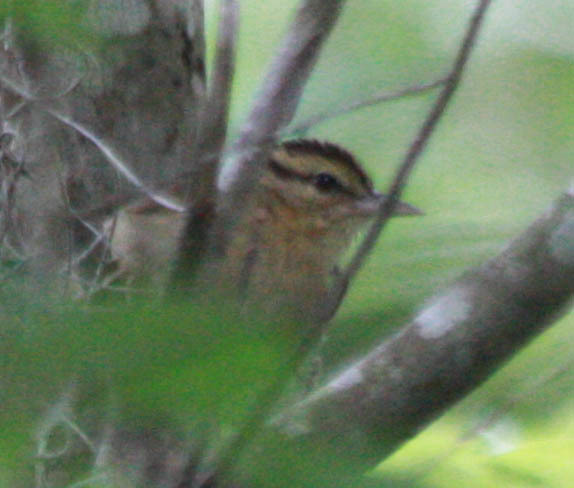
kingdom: Animalia
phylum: Chordata
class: Aves
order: Passeriformes
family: Parulidae
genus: Helmitheros
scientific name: Helmitheros vermivorum
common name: Worm-eating warbler
